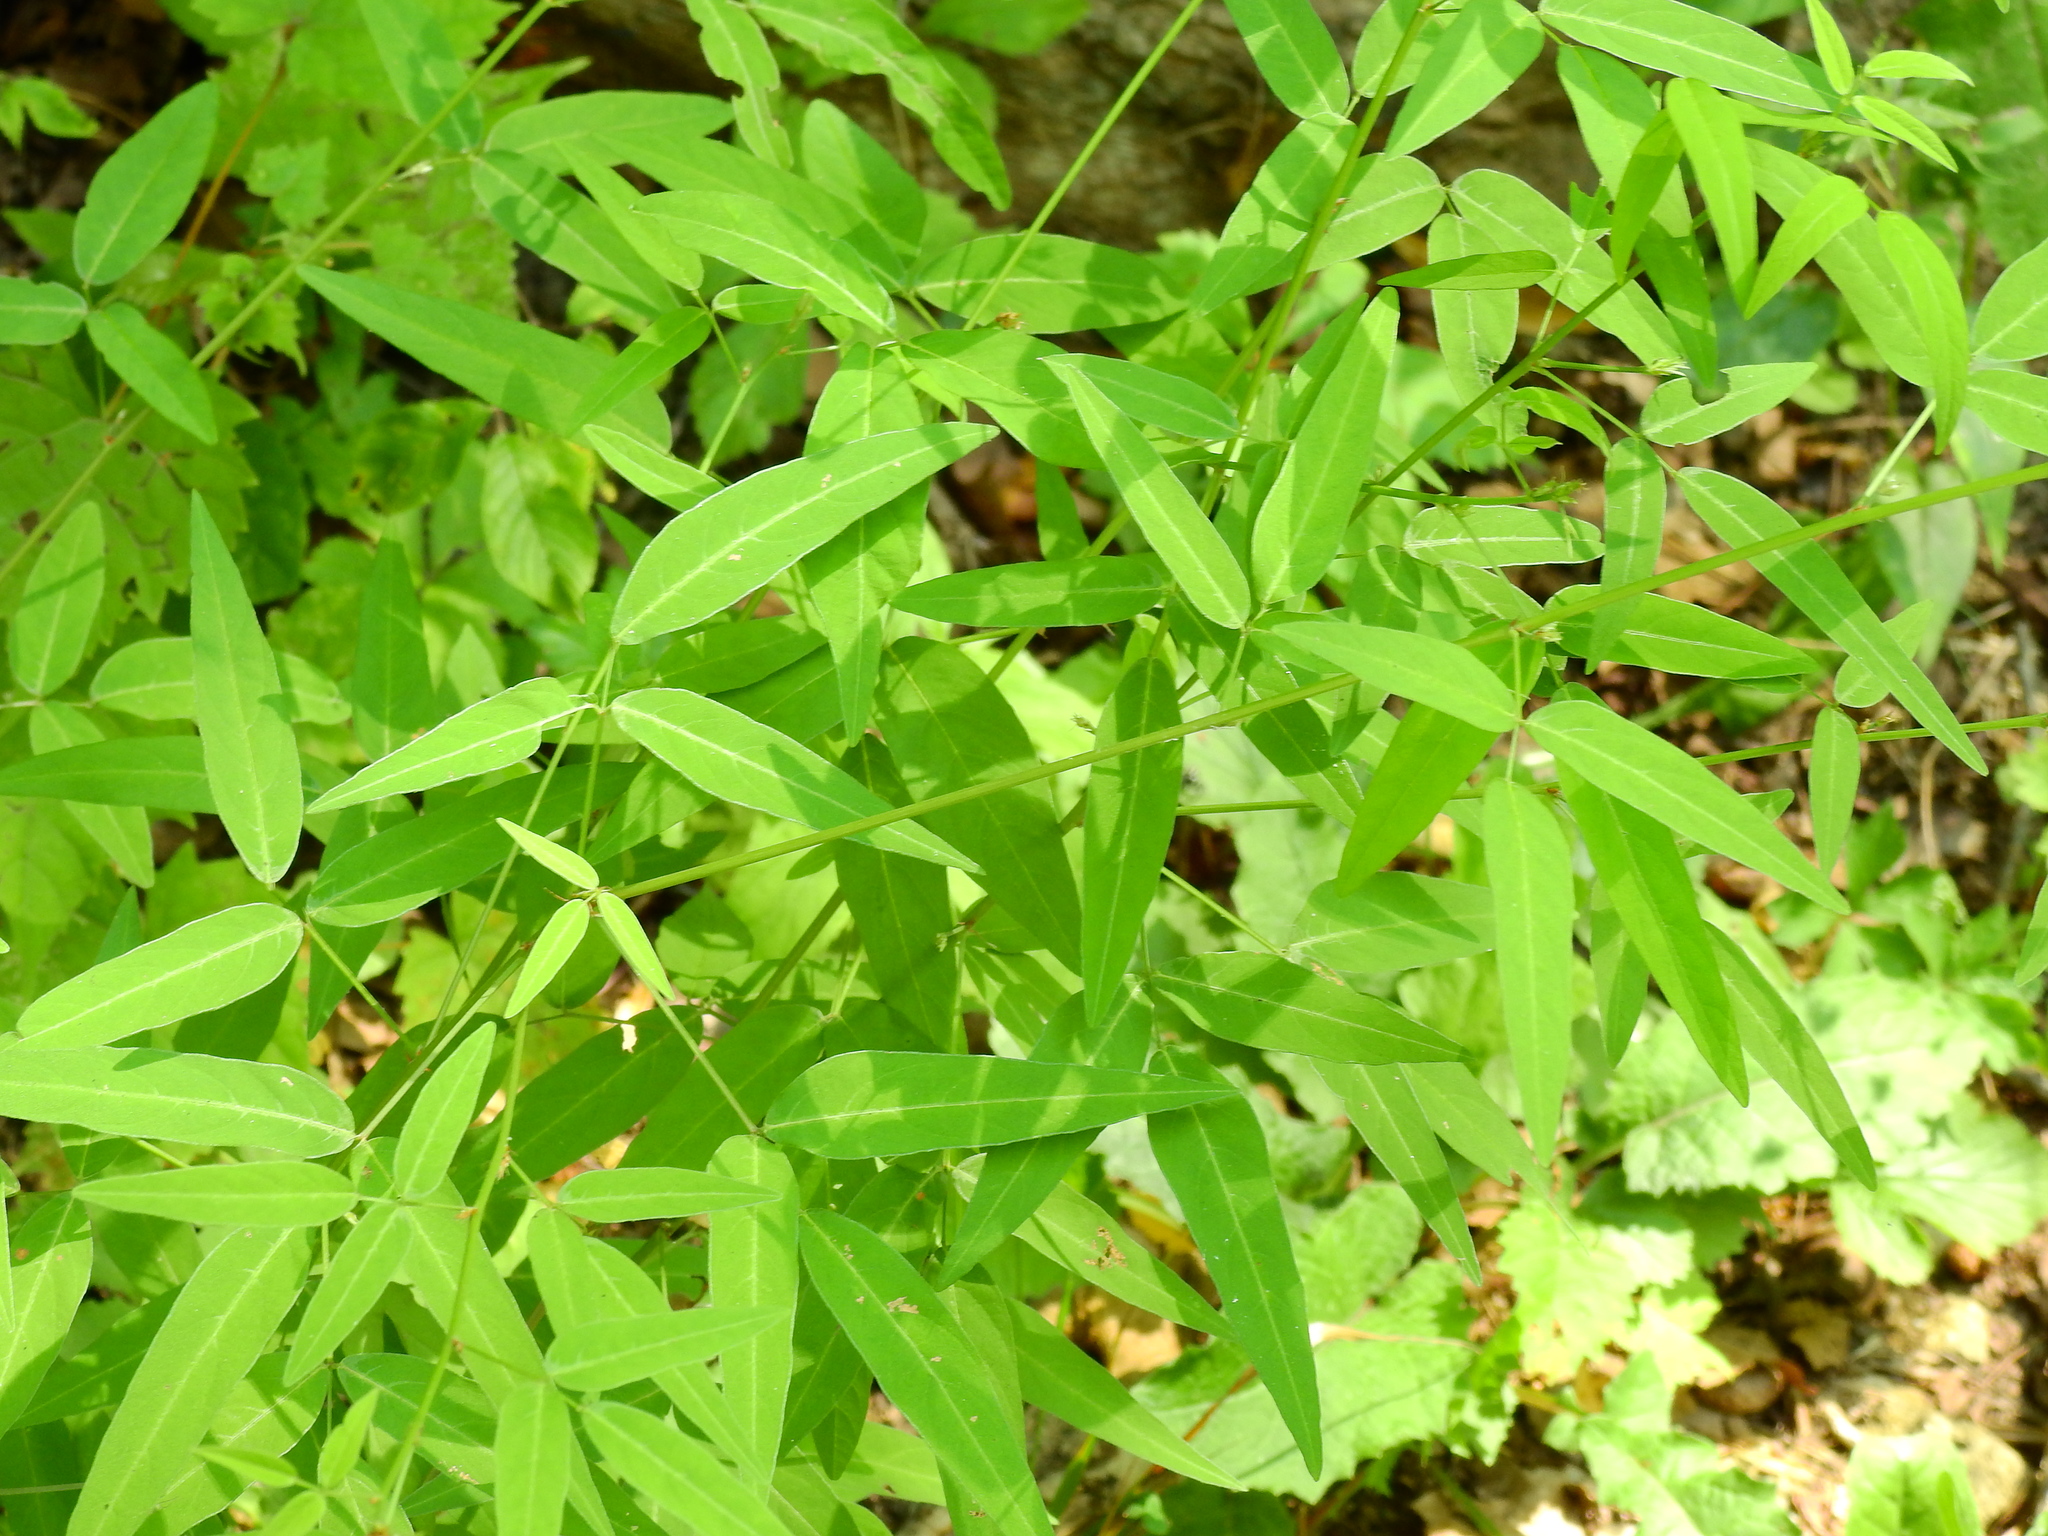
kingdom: Plantae
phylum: Tracheophyta
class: Magnoliopsida
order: Fabales
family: Fabaceae
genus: Desmodium
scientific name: Desmodium paniculatum
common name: Panicled tick-clover
